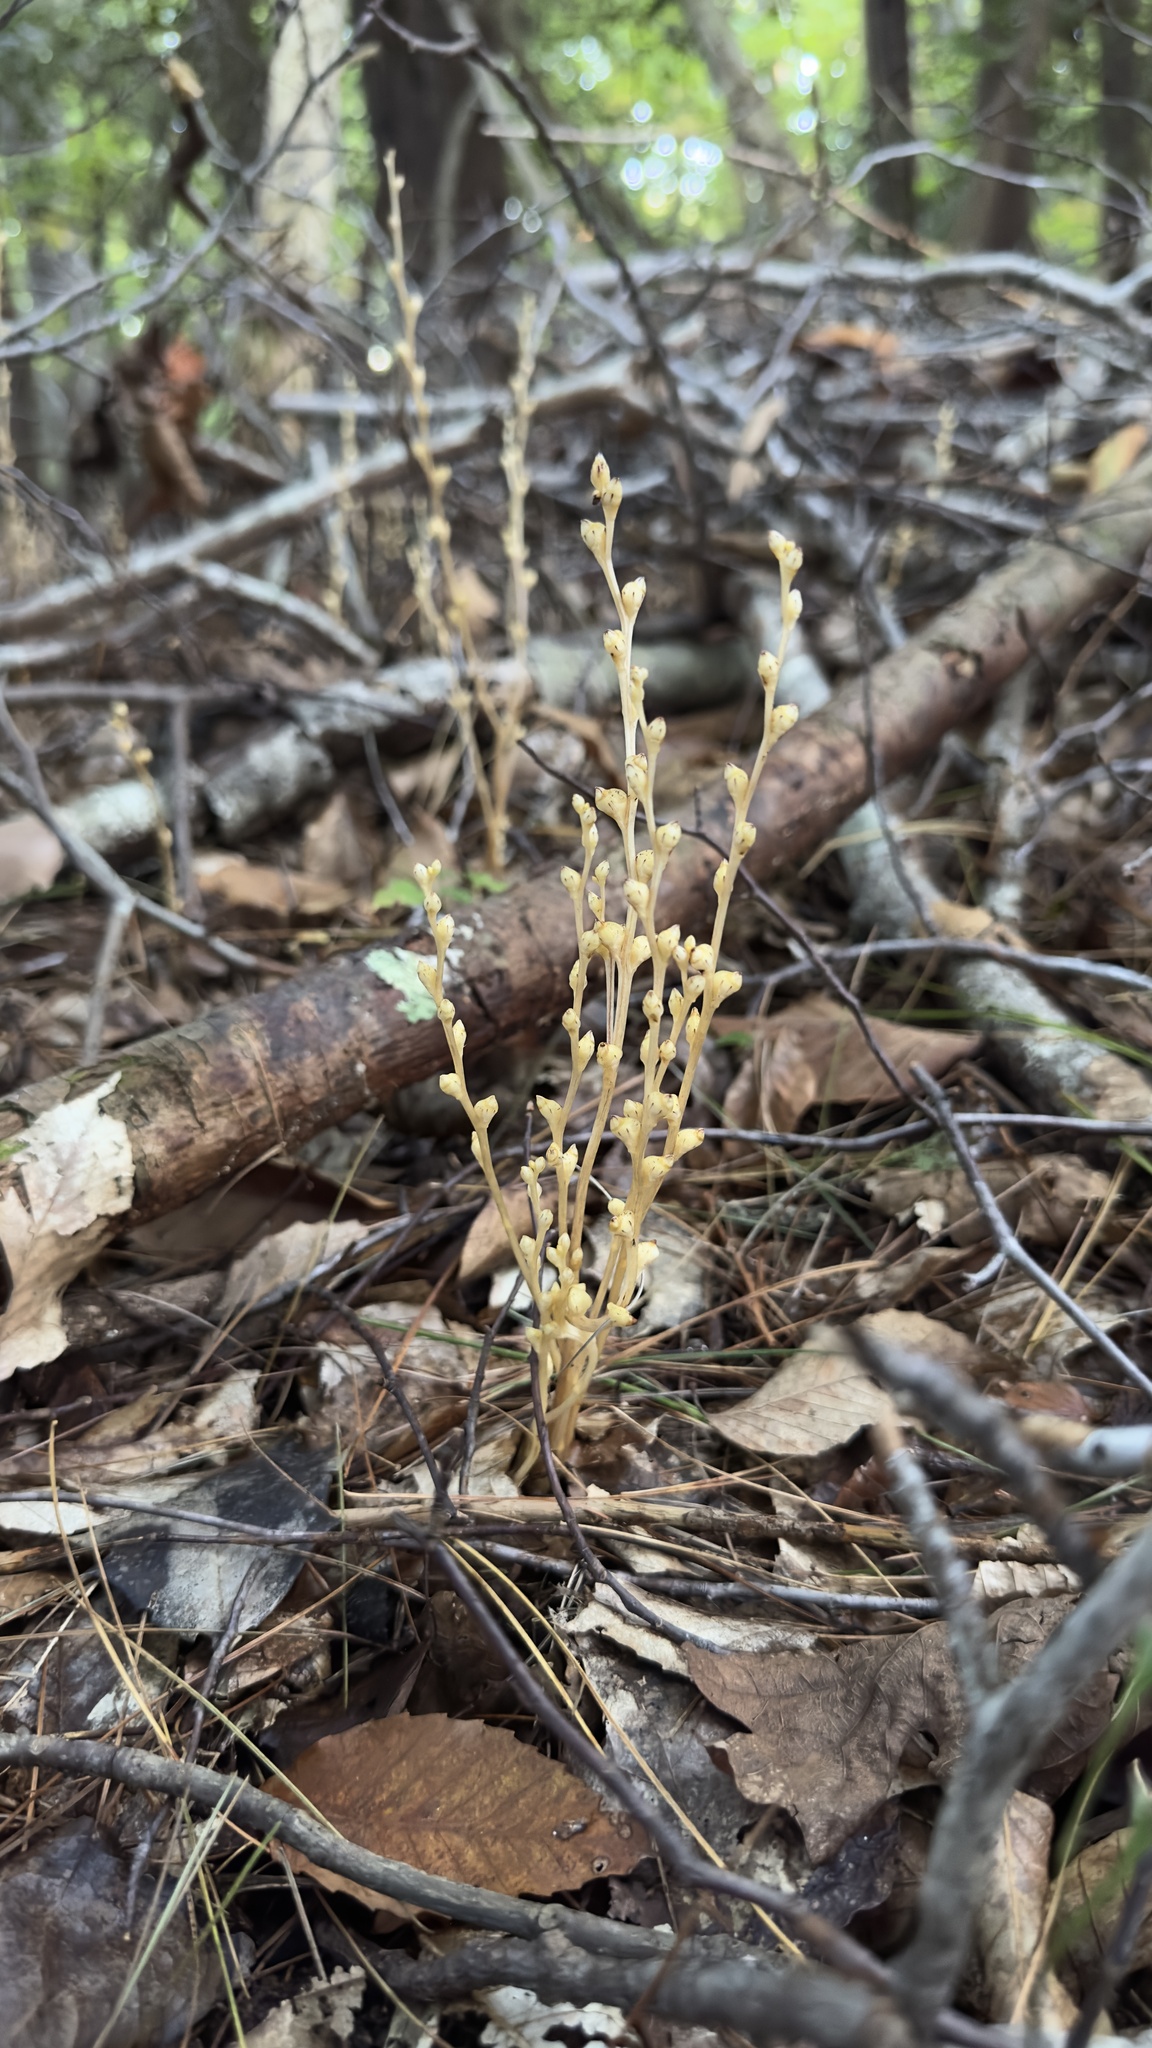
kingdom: Plantae
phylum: Tracheophyta
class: Magnoliopsida
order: Lamiales
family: Orobanchaceae
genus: Epifagus
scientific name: Epifagus virginiana
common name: Beechdrops
